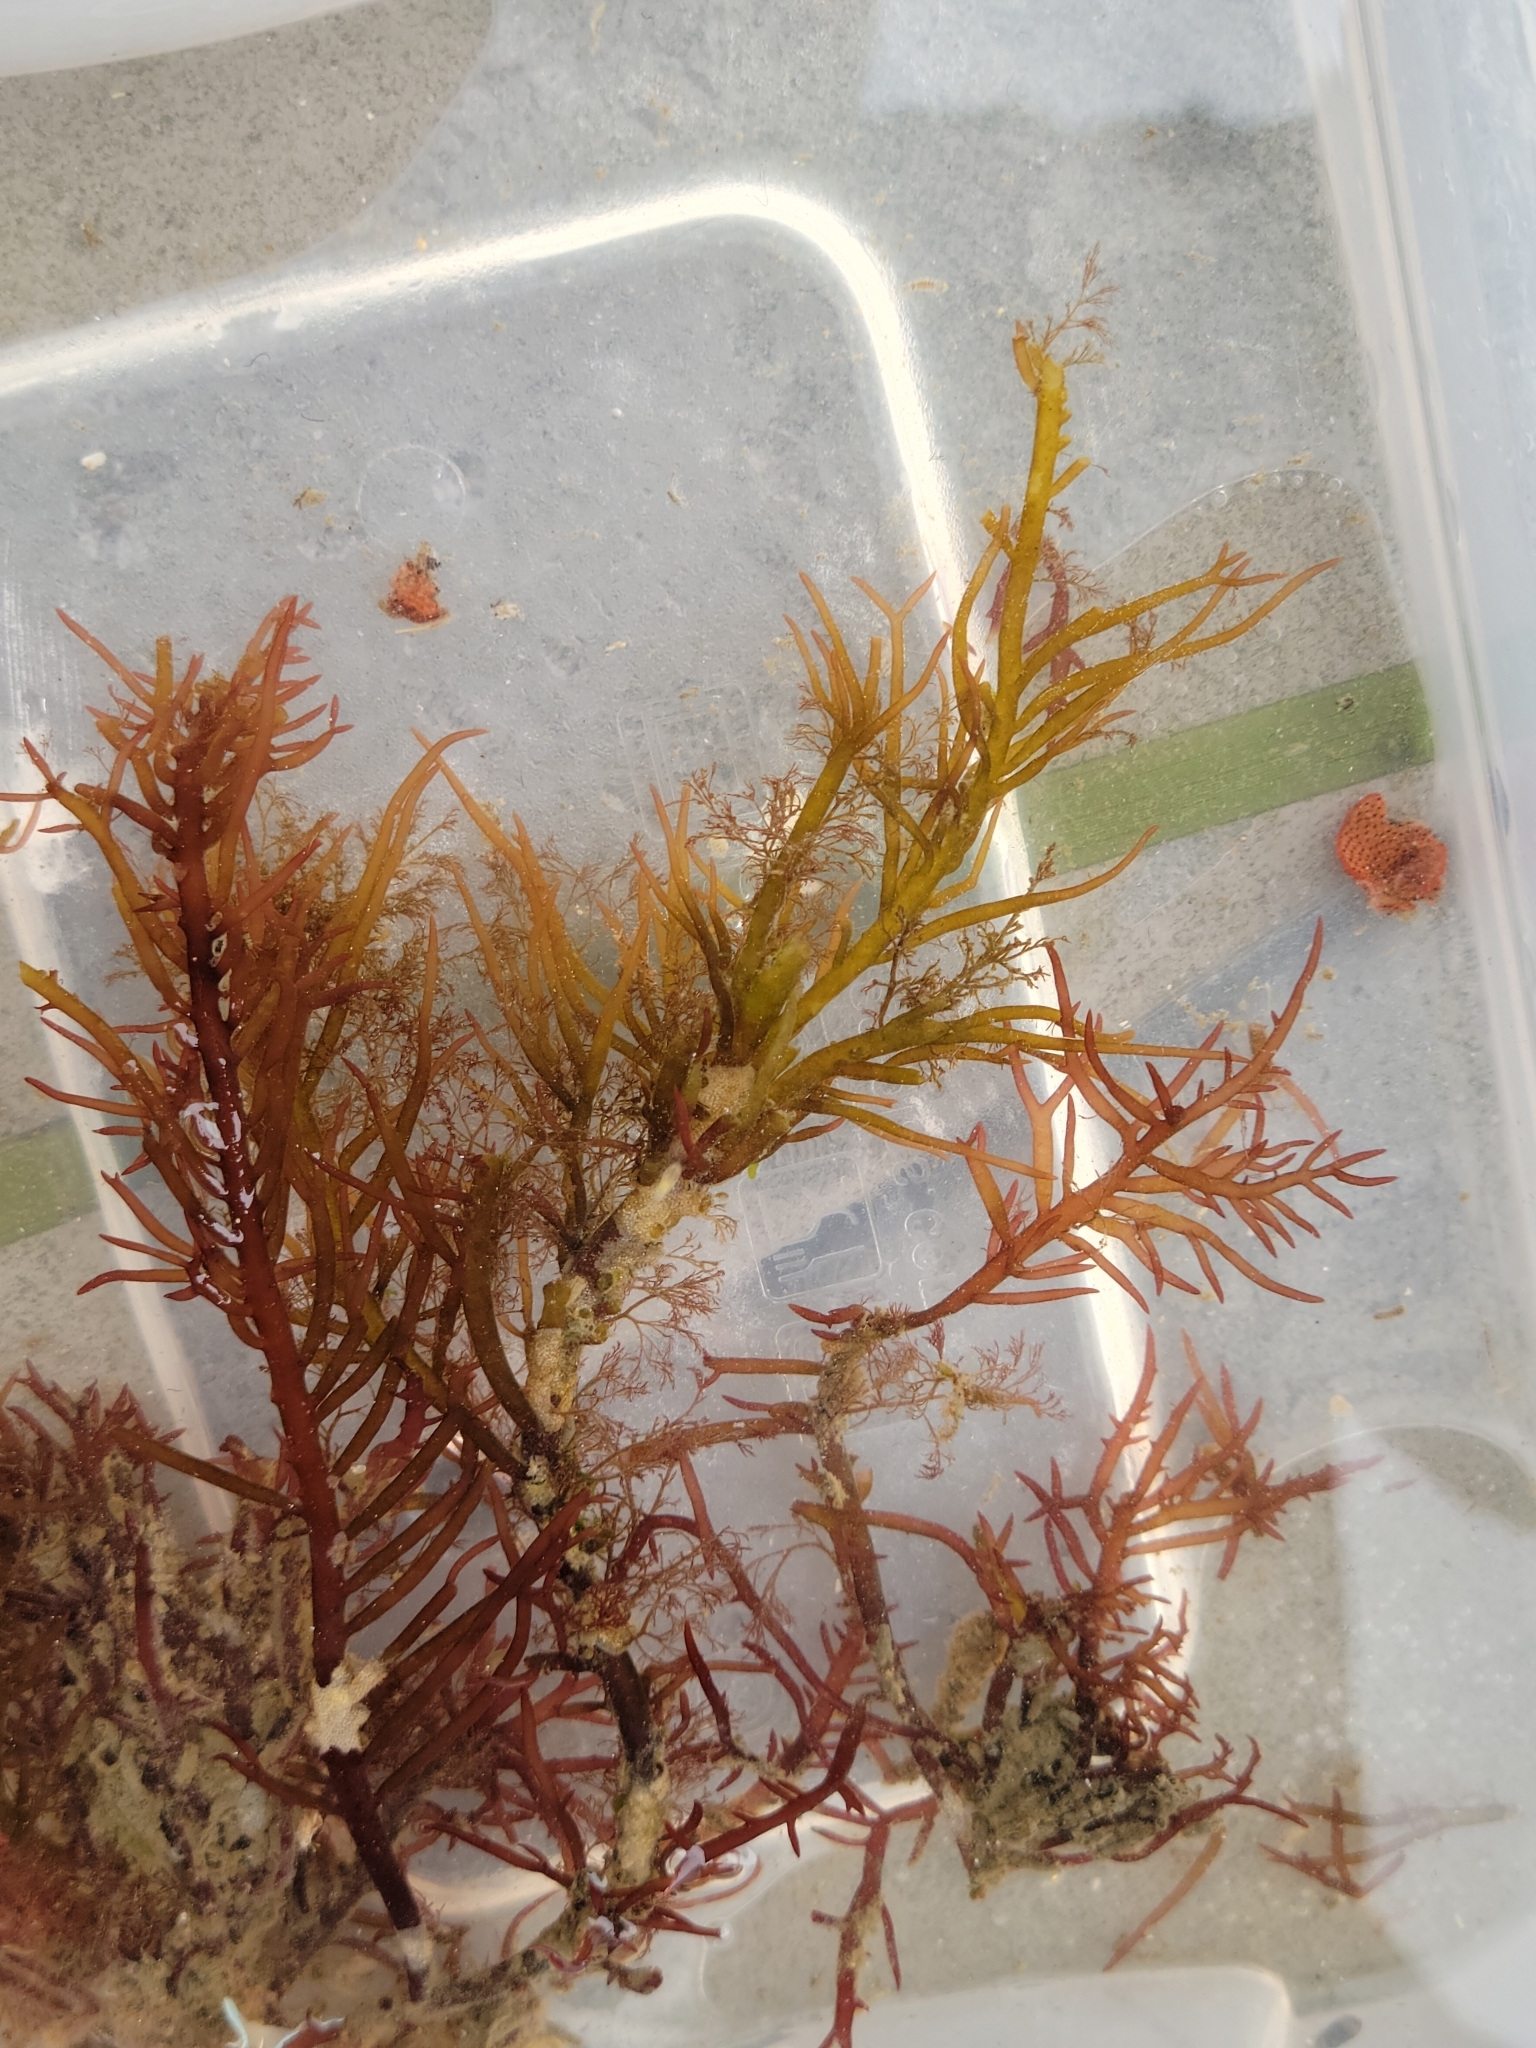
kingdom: Plantae
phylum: Rhodophyta
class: Florideophyceae
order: Gigartinales
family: Solieriaceae
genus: Sarcodiotheca
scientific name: Sarcodiotheca gaudichaudii
